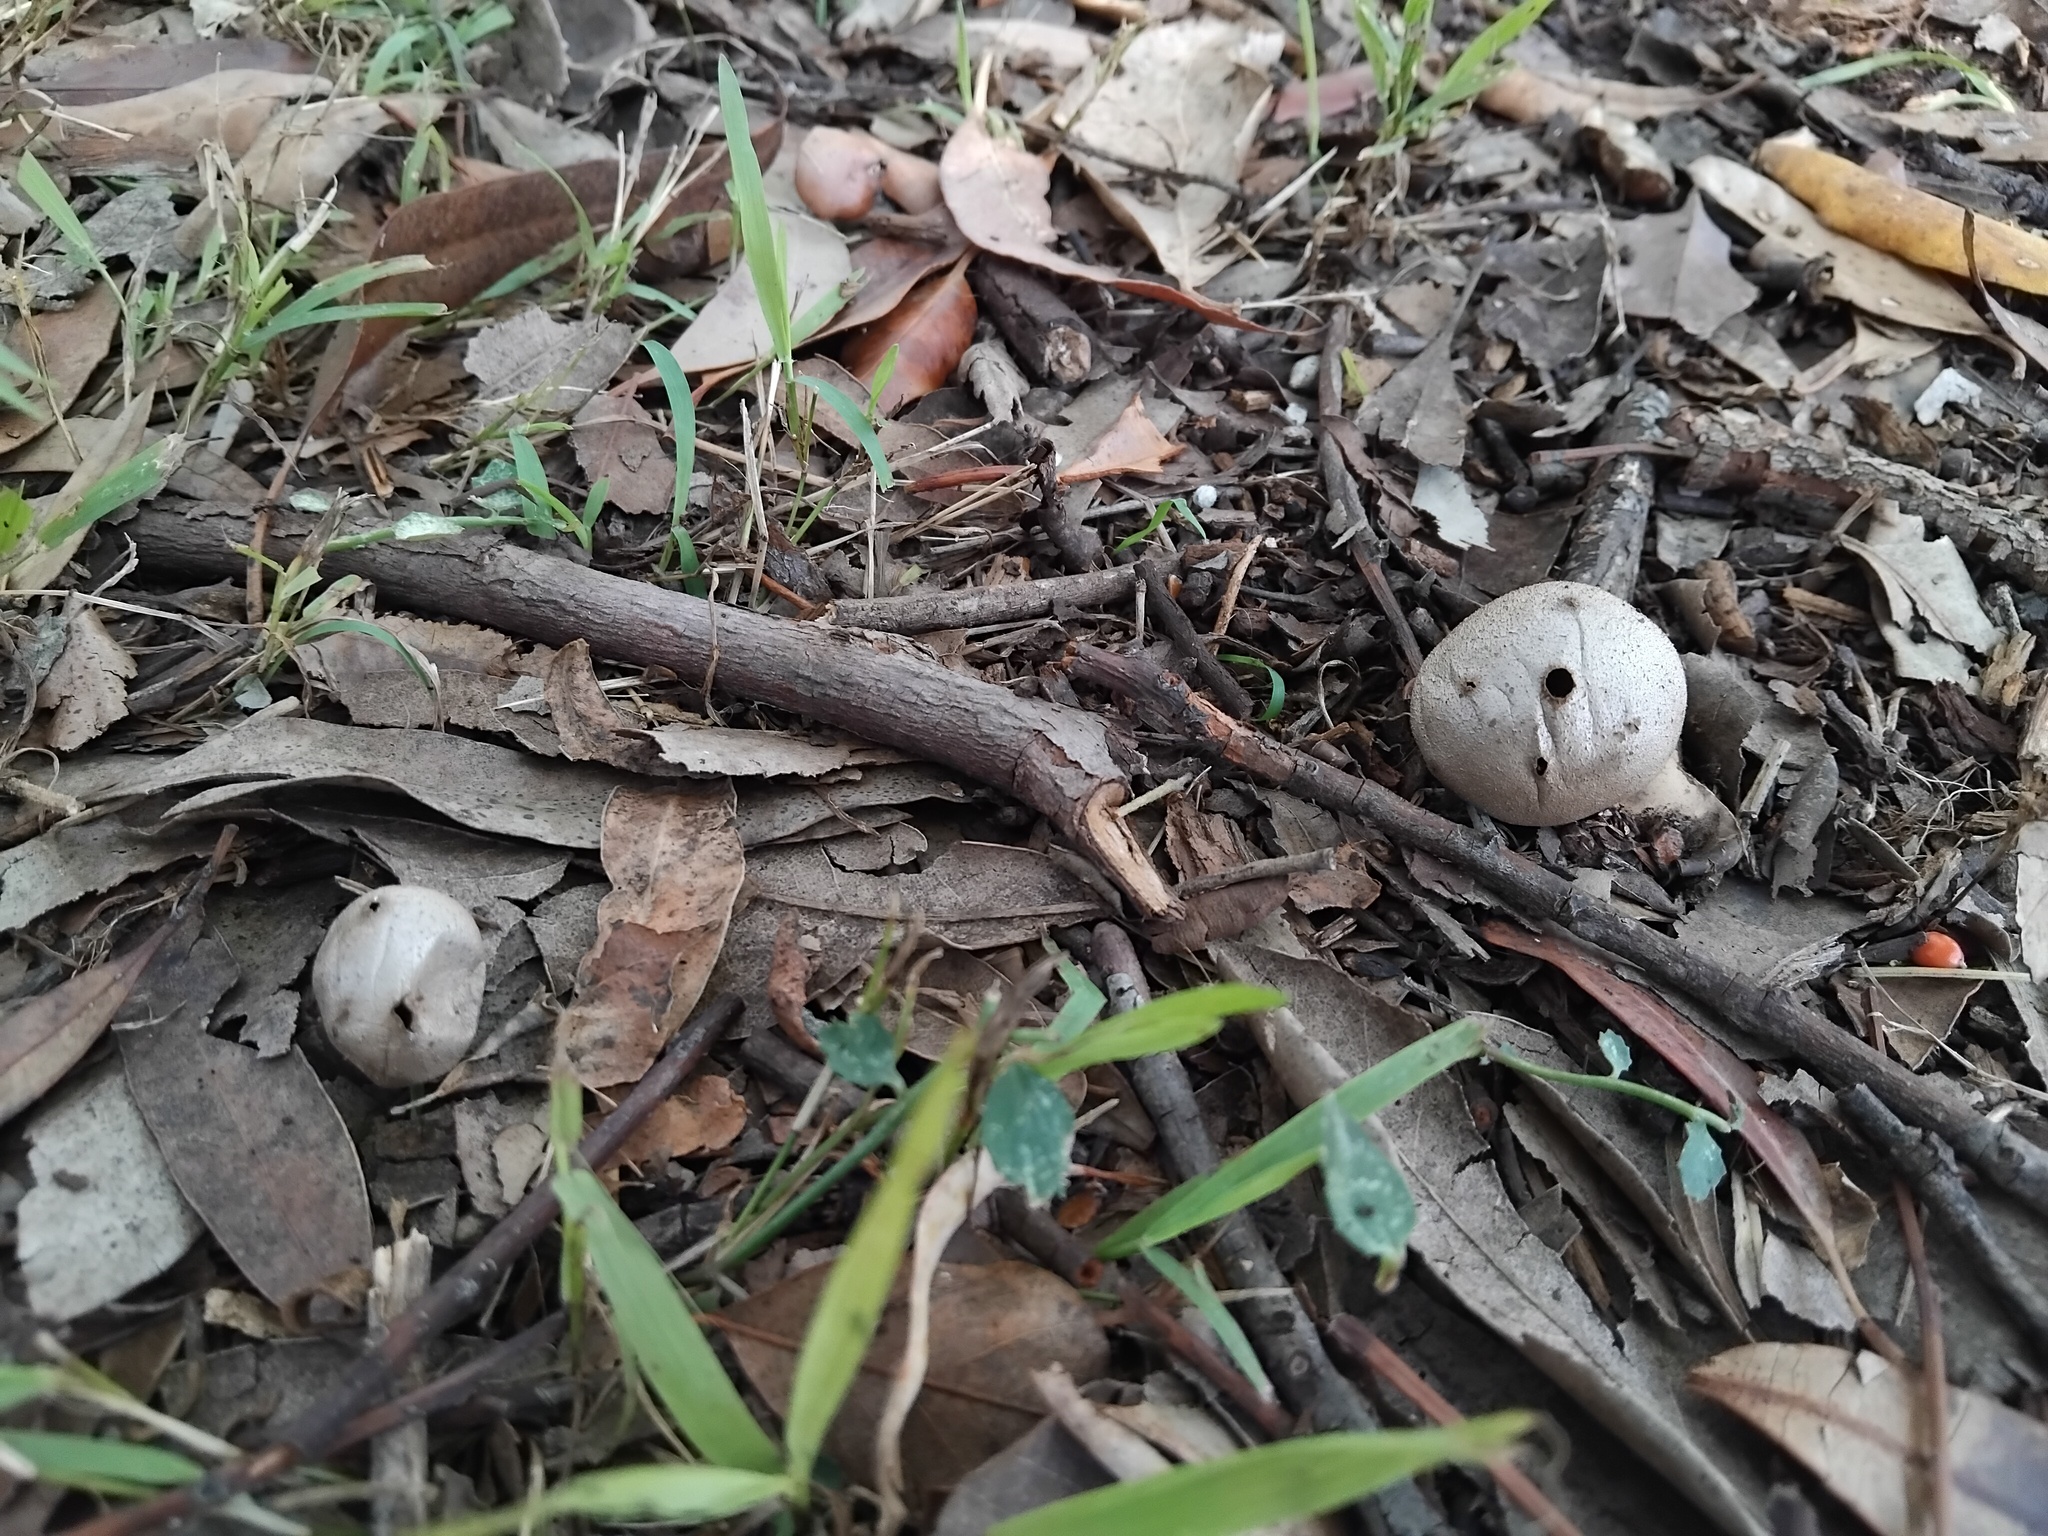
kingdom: Fungi
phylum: Basidiomycota
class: Agaricomycetes
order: Geastrales
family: Geastraceae
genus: Myriostoma
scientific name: Myriostoma australianum
